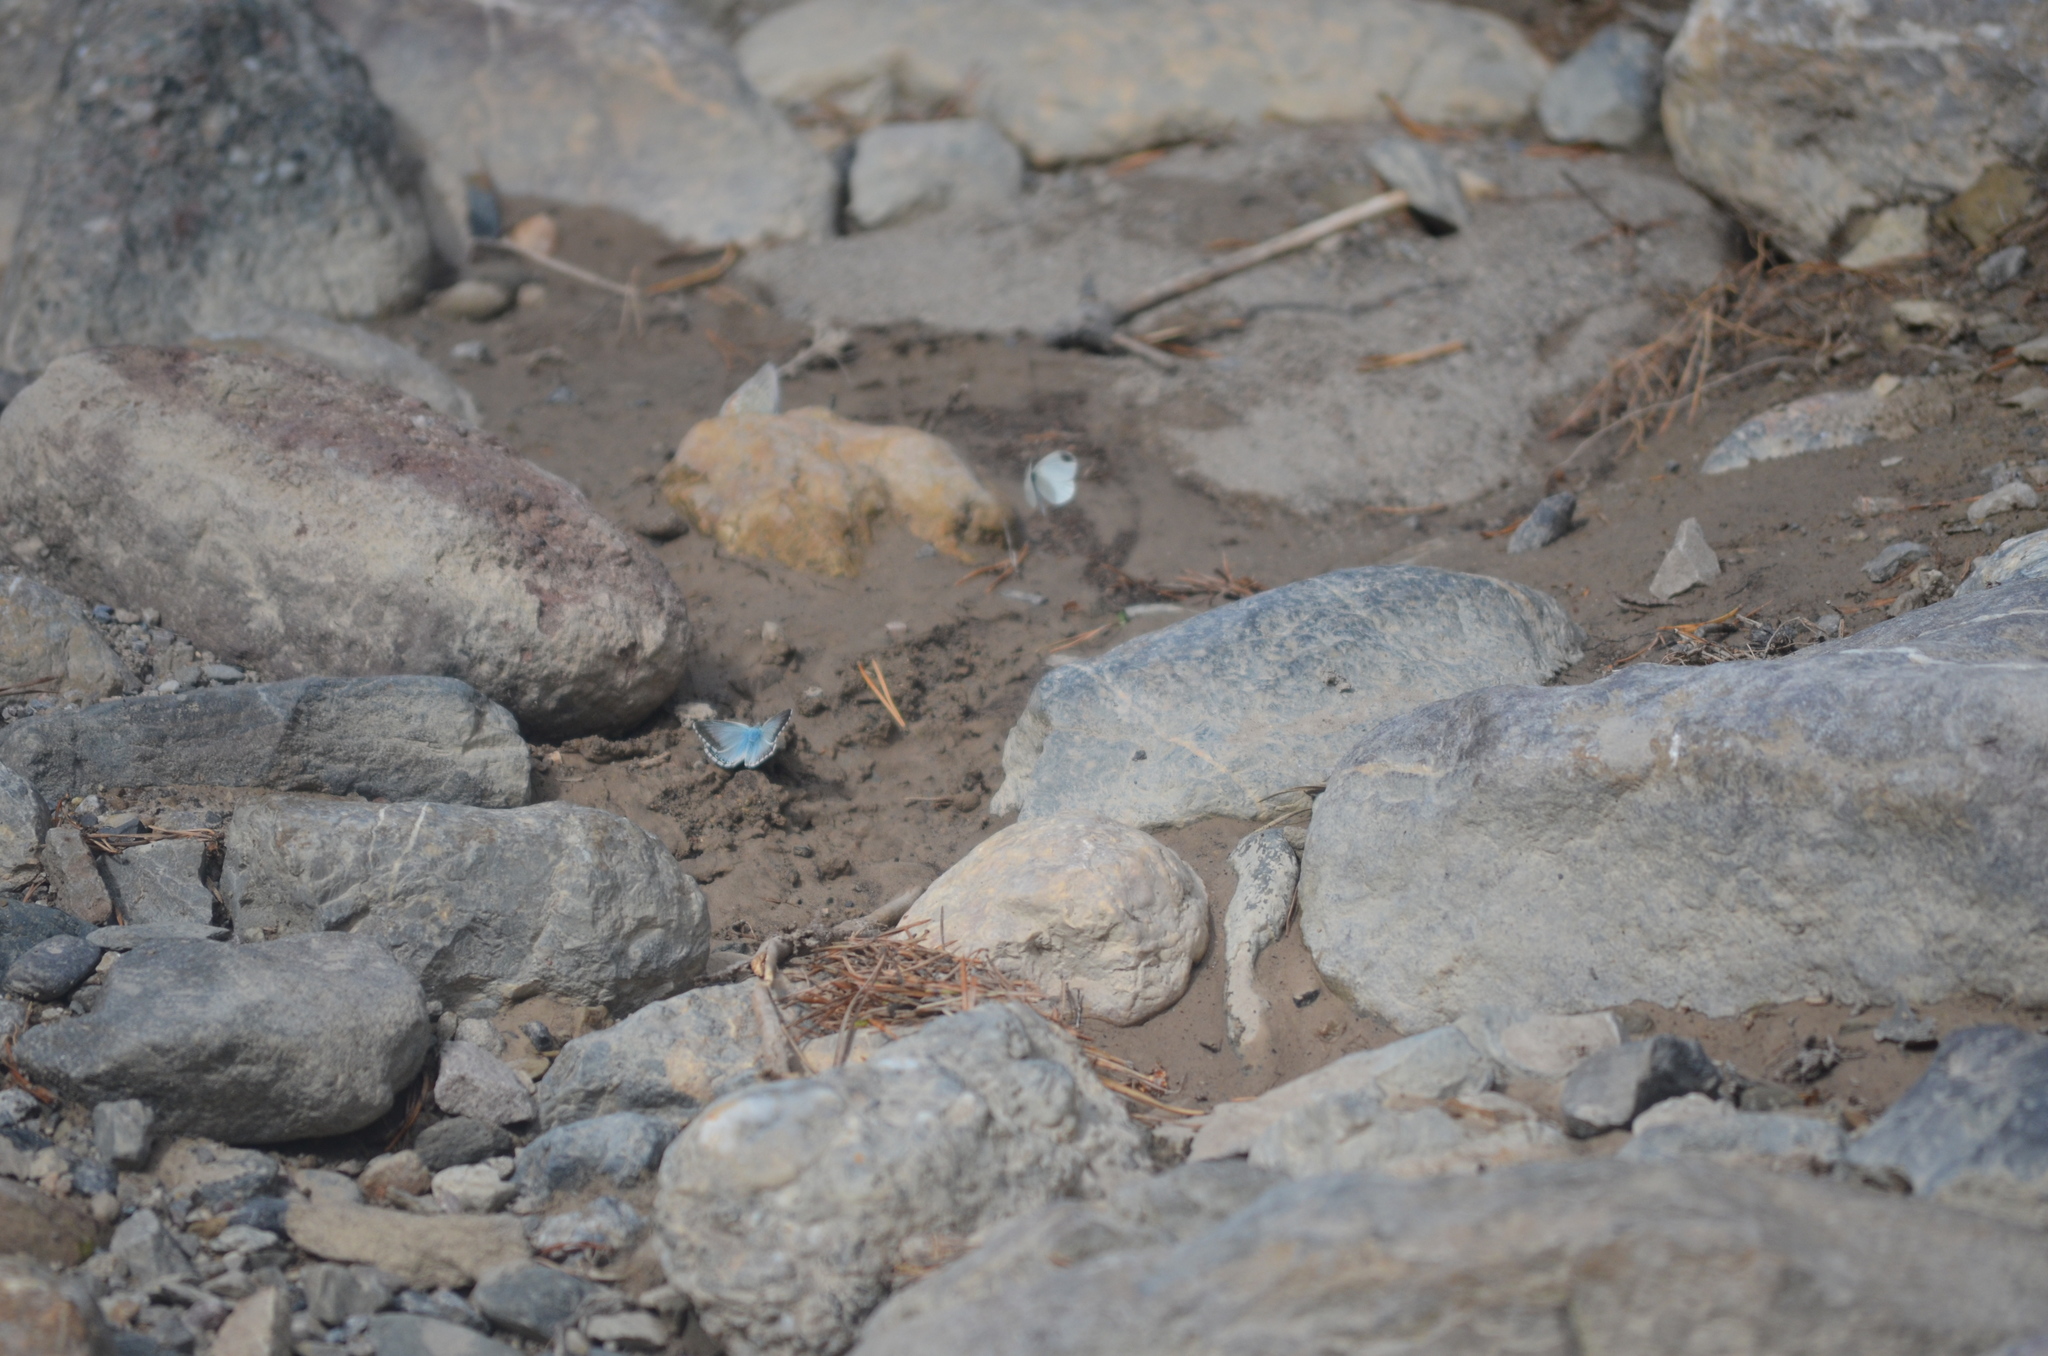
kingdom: Animalia
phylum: Arthropoda
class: Insecta
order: Lepidoptera
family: Lycaenidae
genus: Lysandra
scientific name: Lysandra coridon
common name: Chalkhill blue
